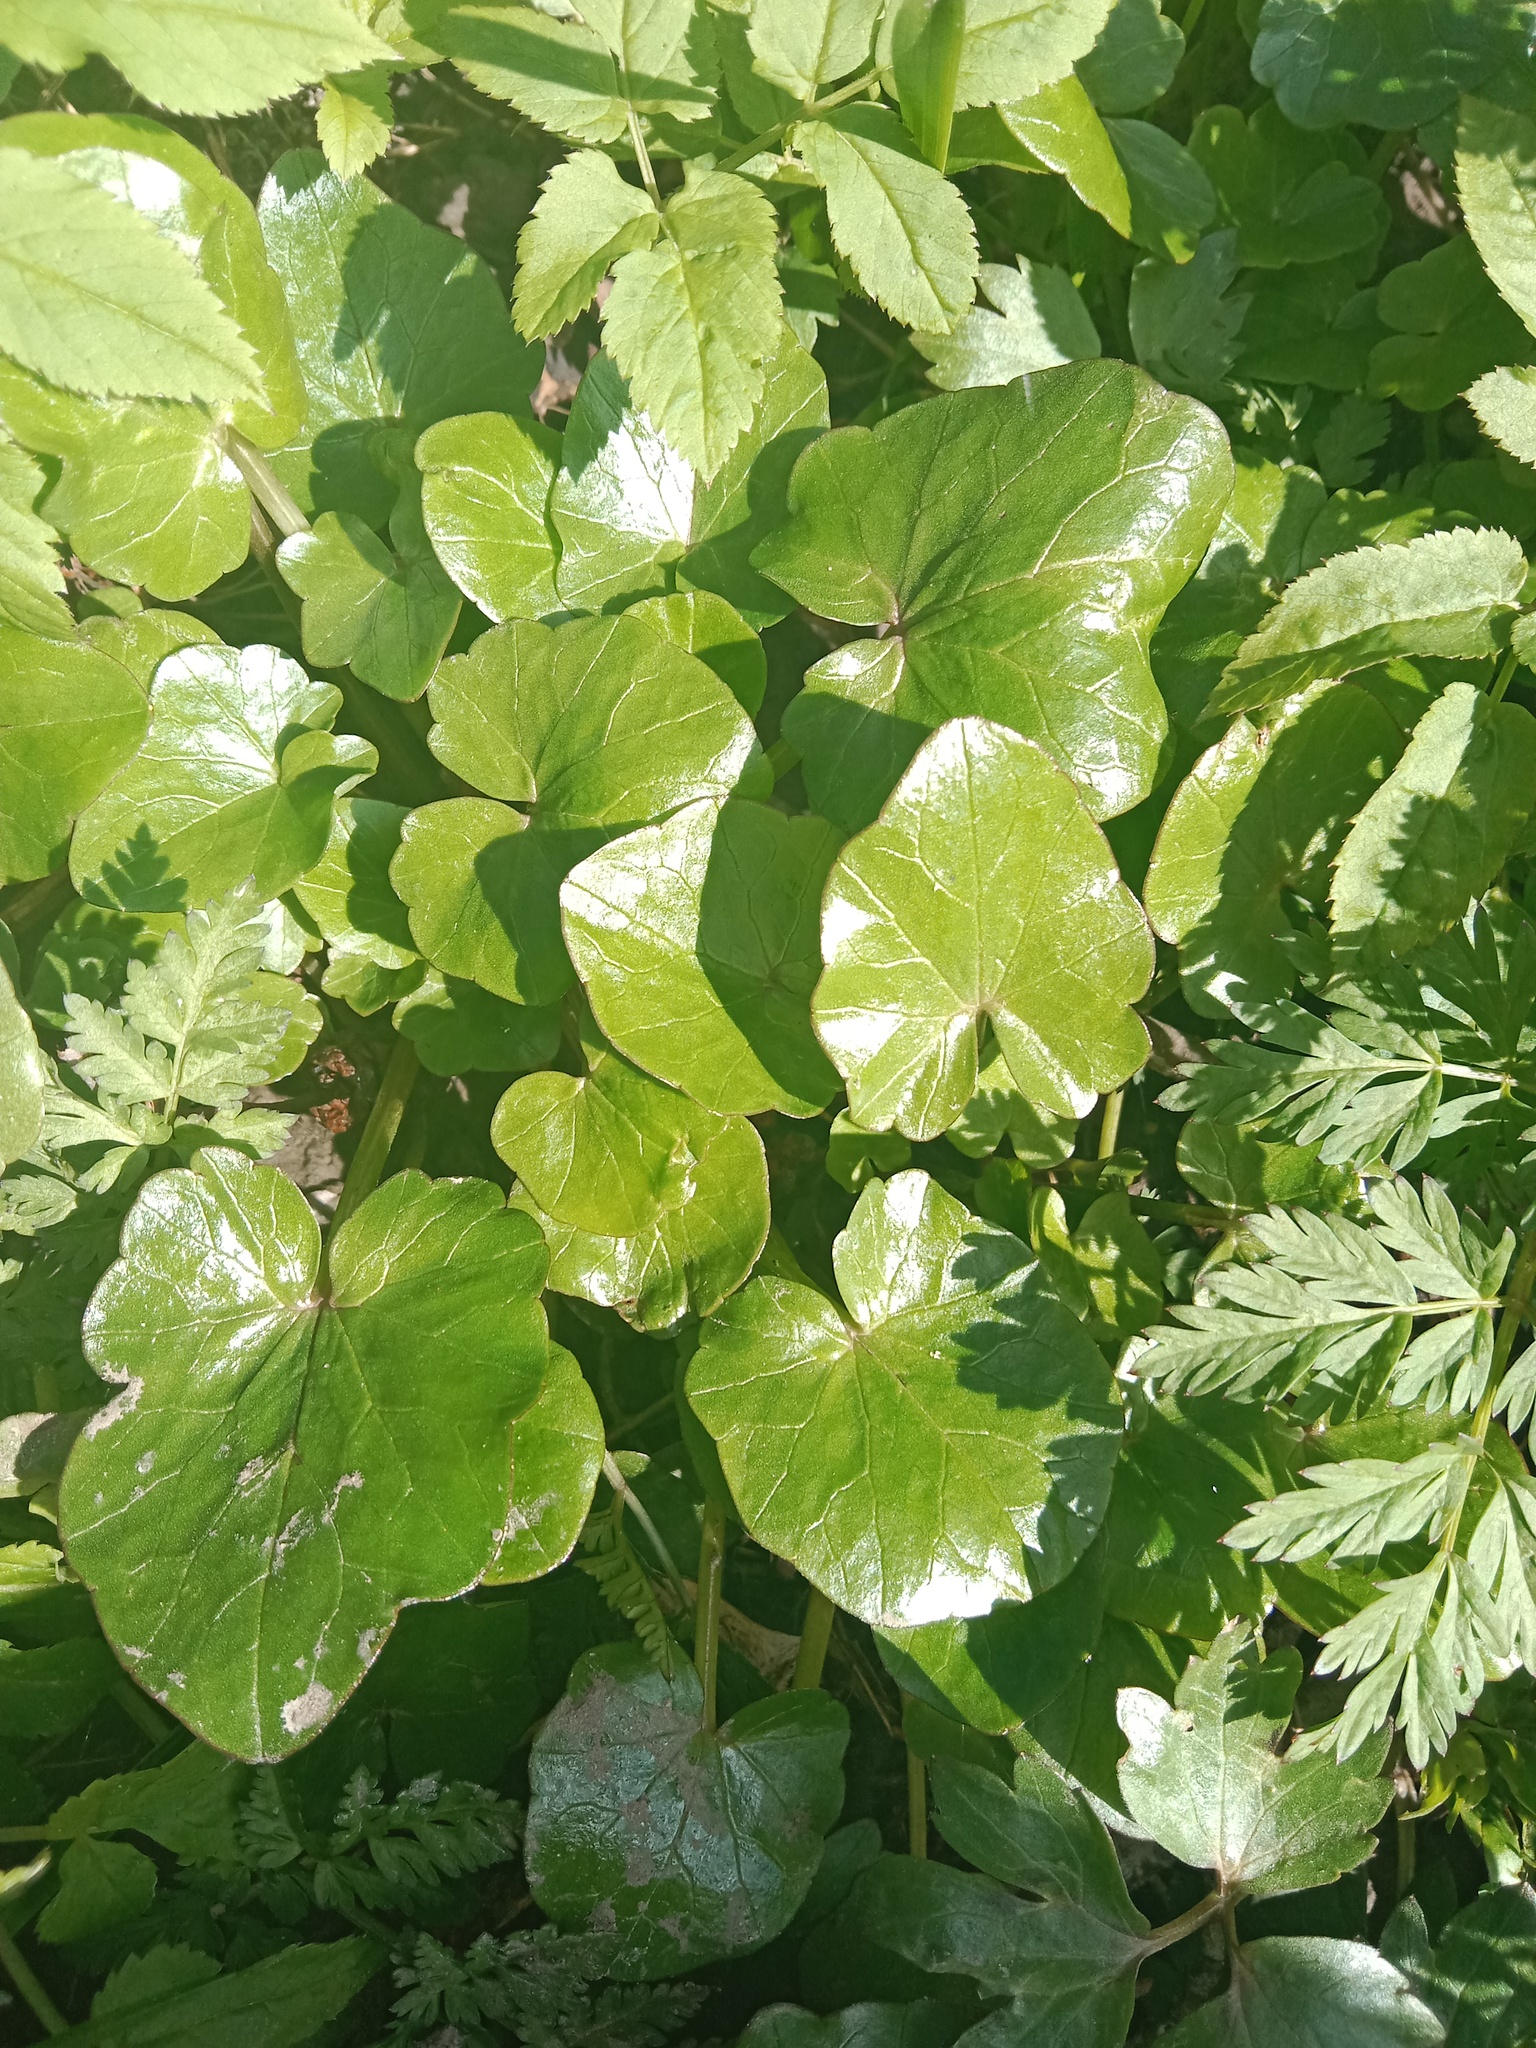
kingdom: Plantae
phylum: Tracheophyta
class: Magnoliopsida
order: Ranunculales
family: Ranunculaceae
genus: Ficaria
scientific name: Ficaria verna
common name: Lesser celandine
